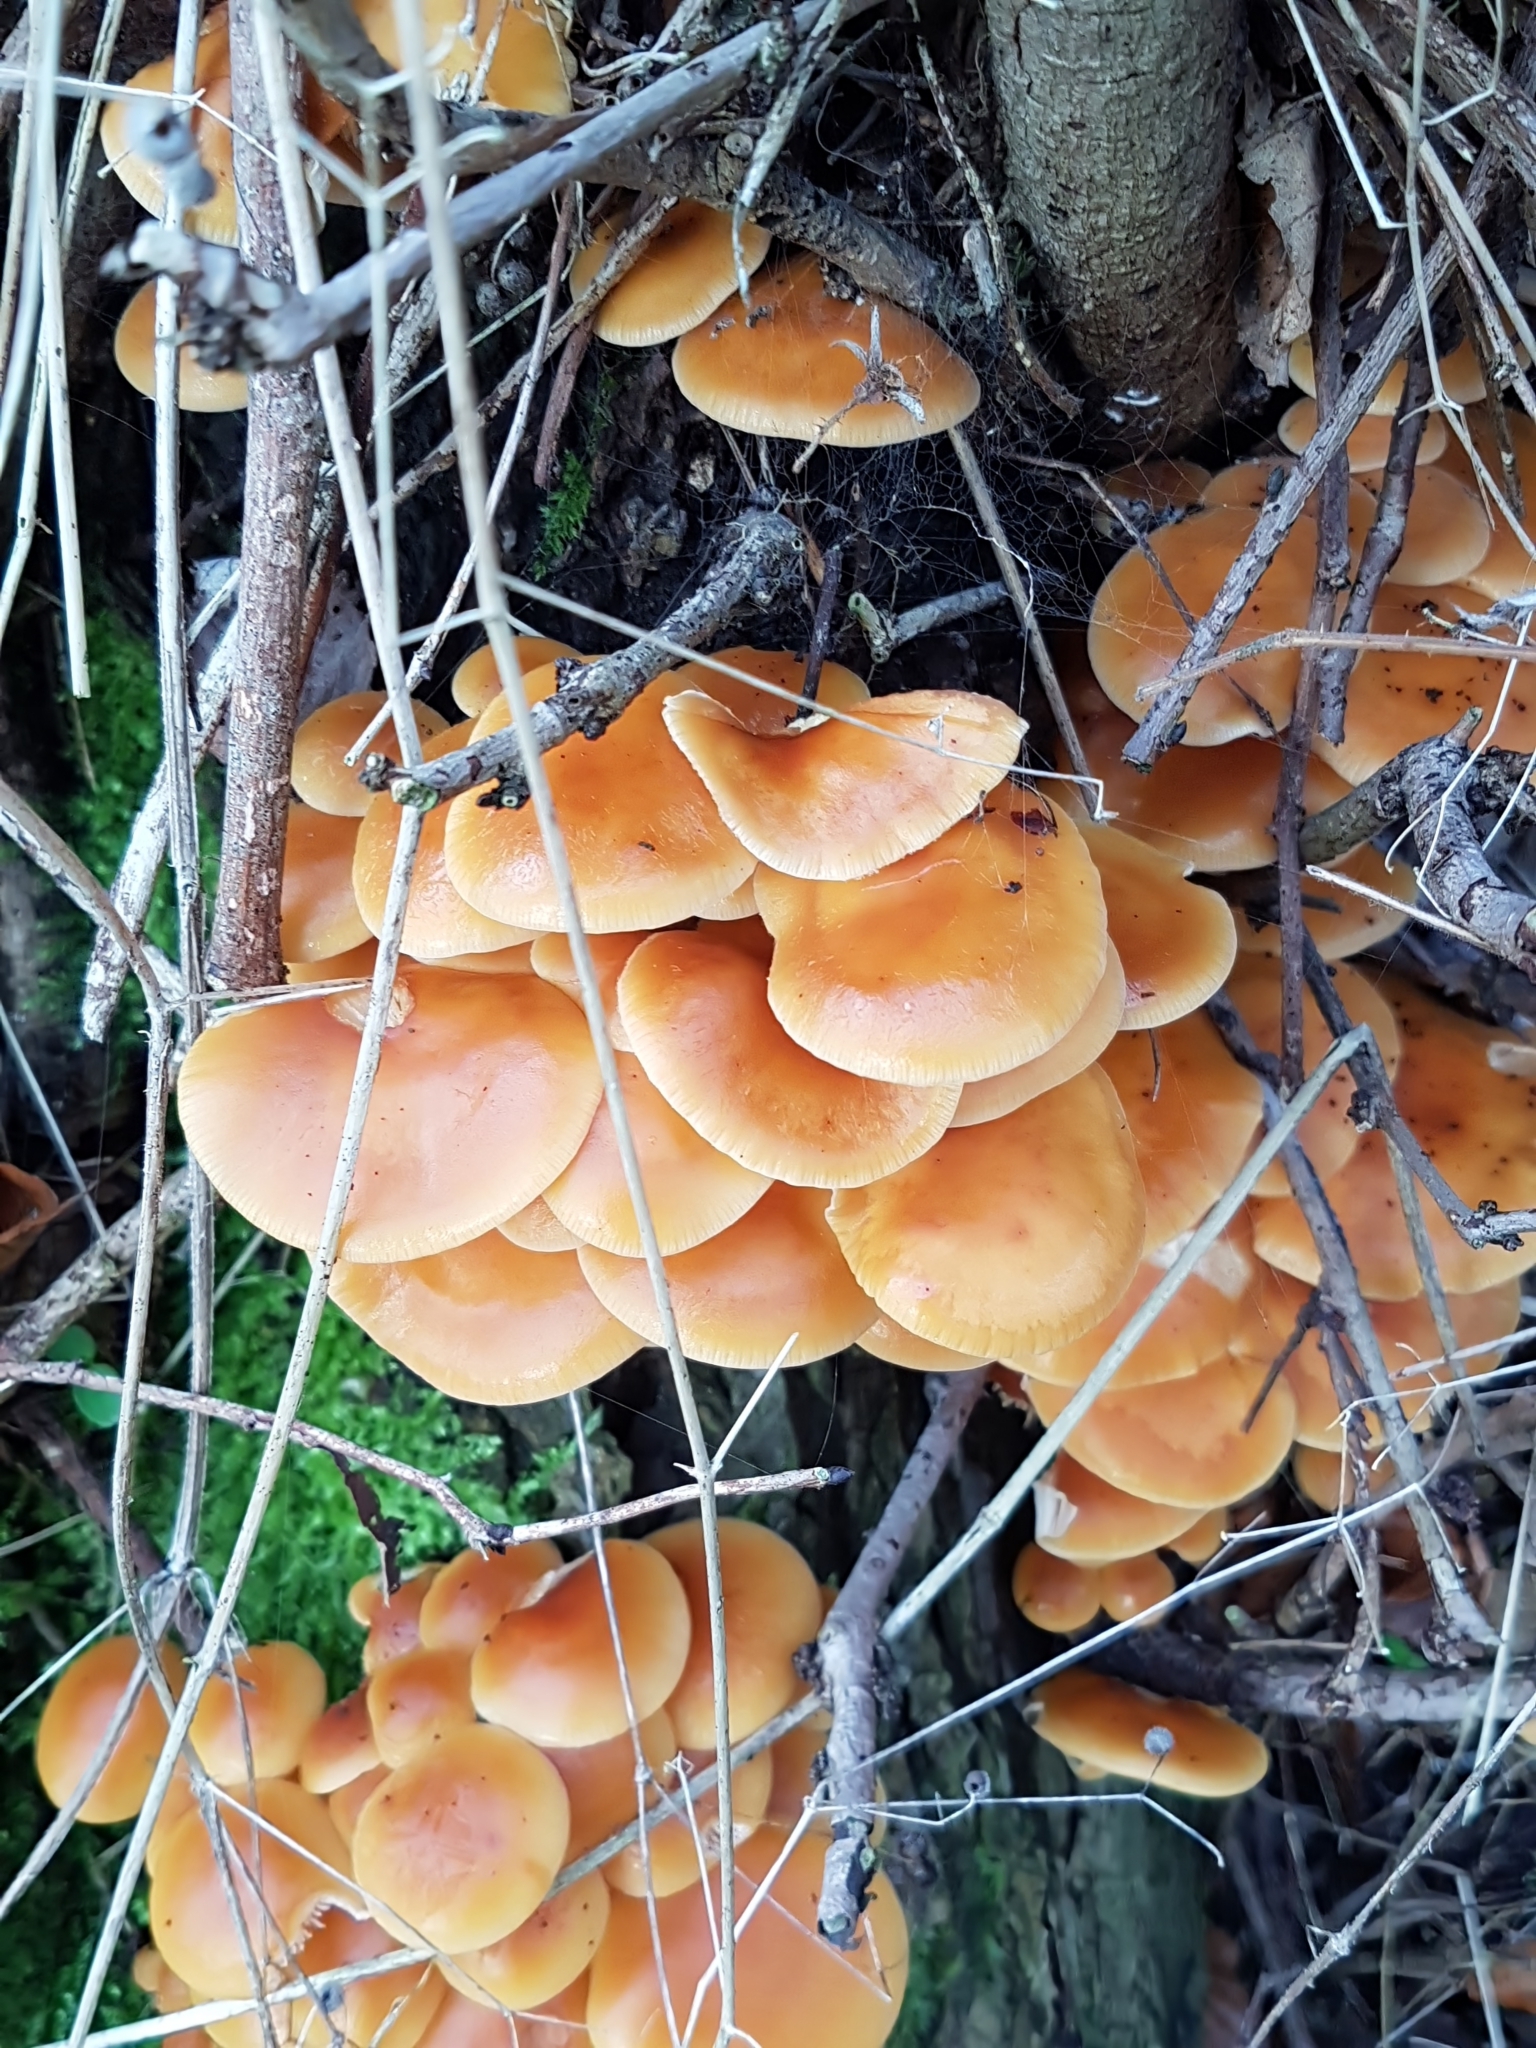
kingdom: Fungi
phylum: Basidiomycota
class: Agaricomycetes
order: Agaricales
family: Physalacriaceae
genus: Flammulina
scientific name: Flammulina
